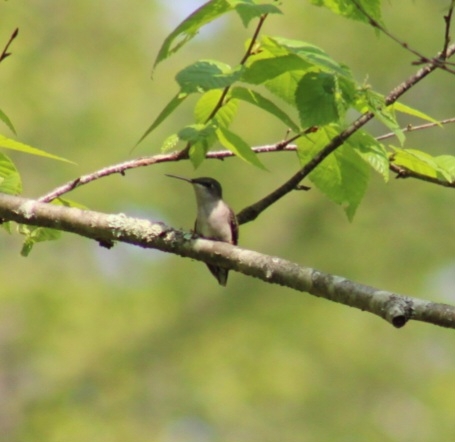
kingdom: Animalia
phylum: Chordata
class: Aves
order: Apodiformes
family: Trochilidae
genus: Archilochus
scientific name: Archilochus colubris
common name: Ruby-throated hummingbird
